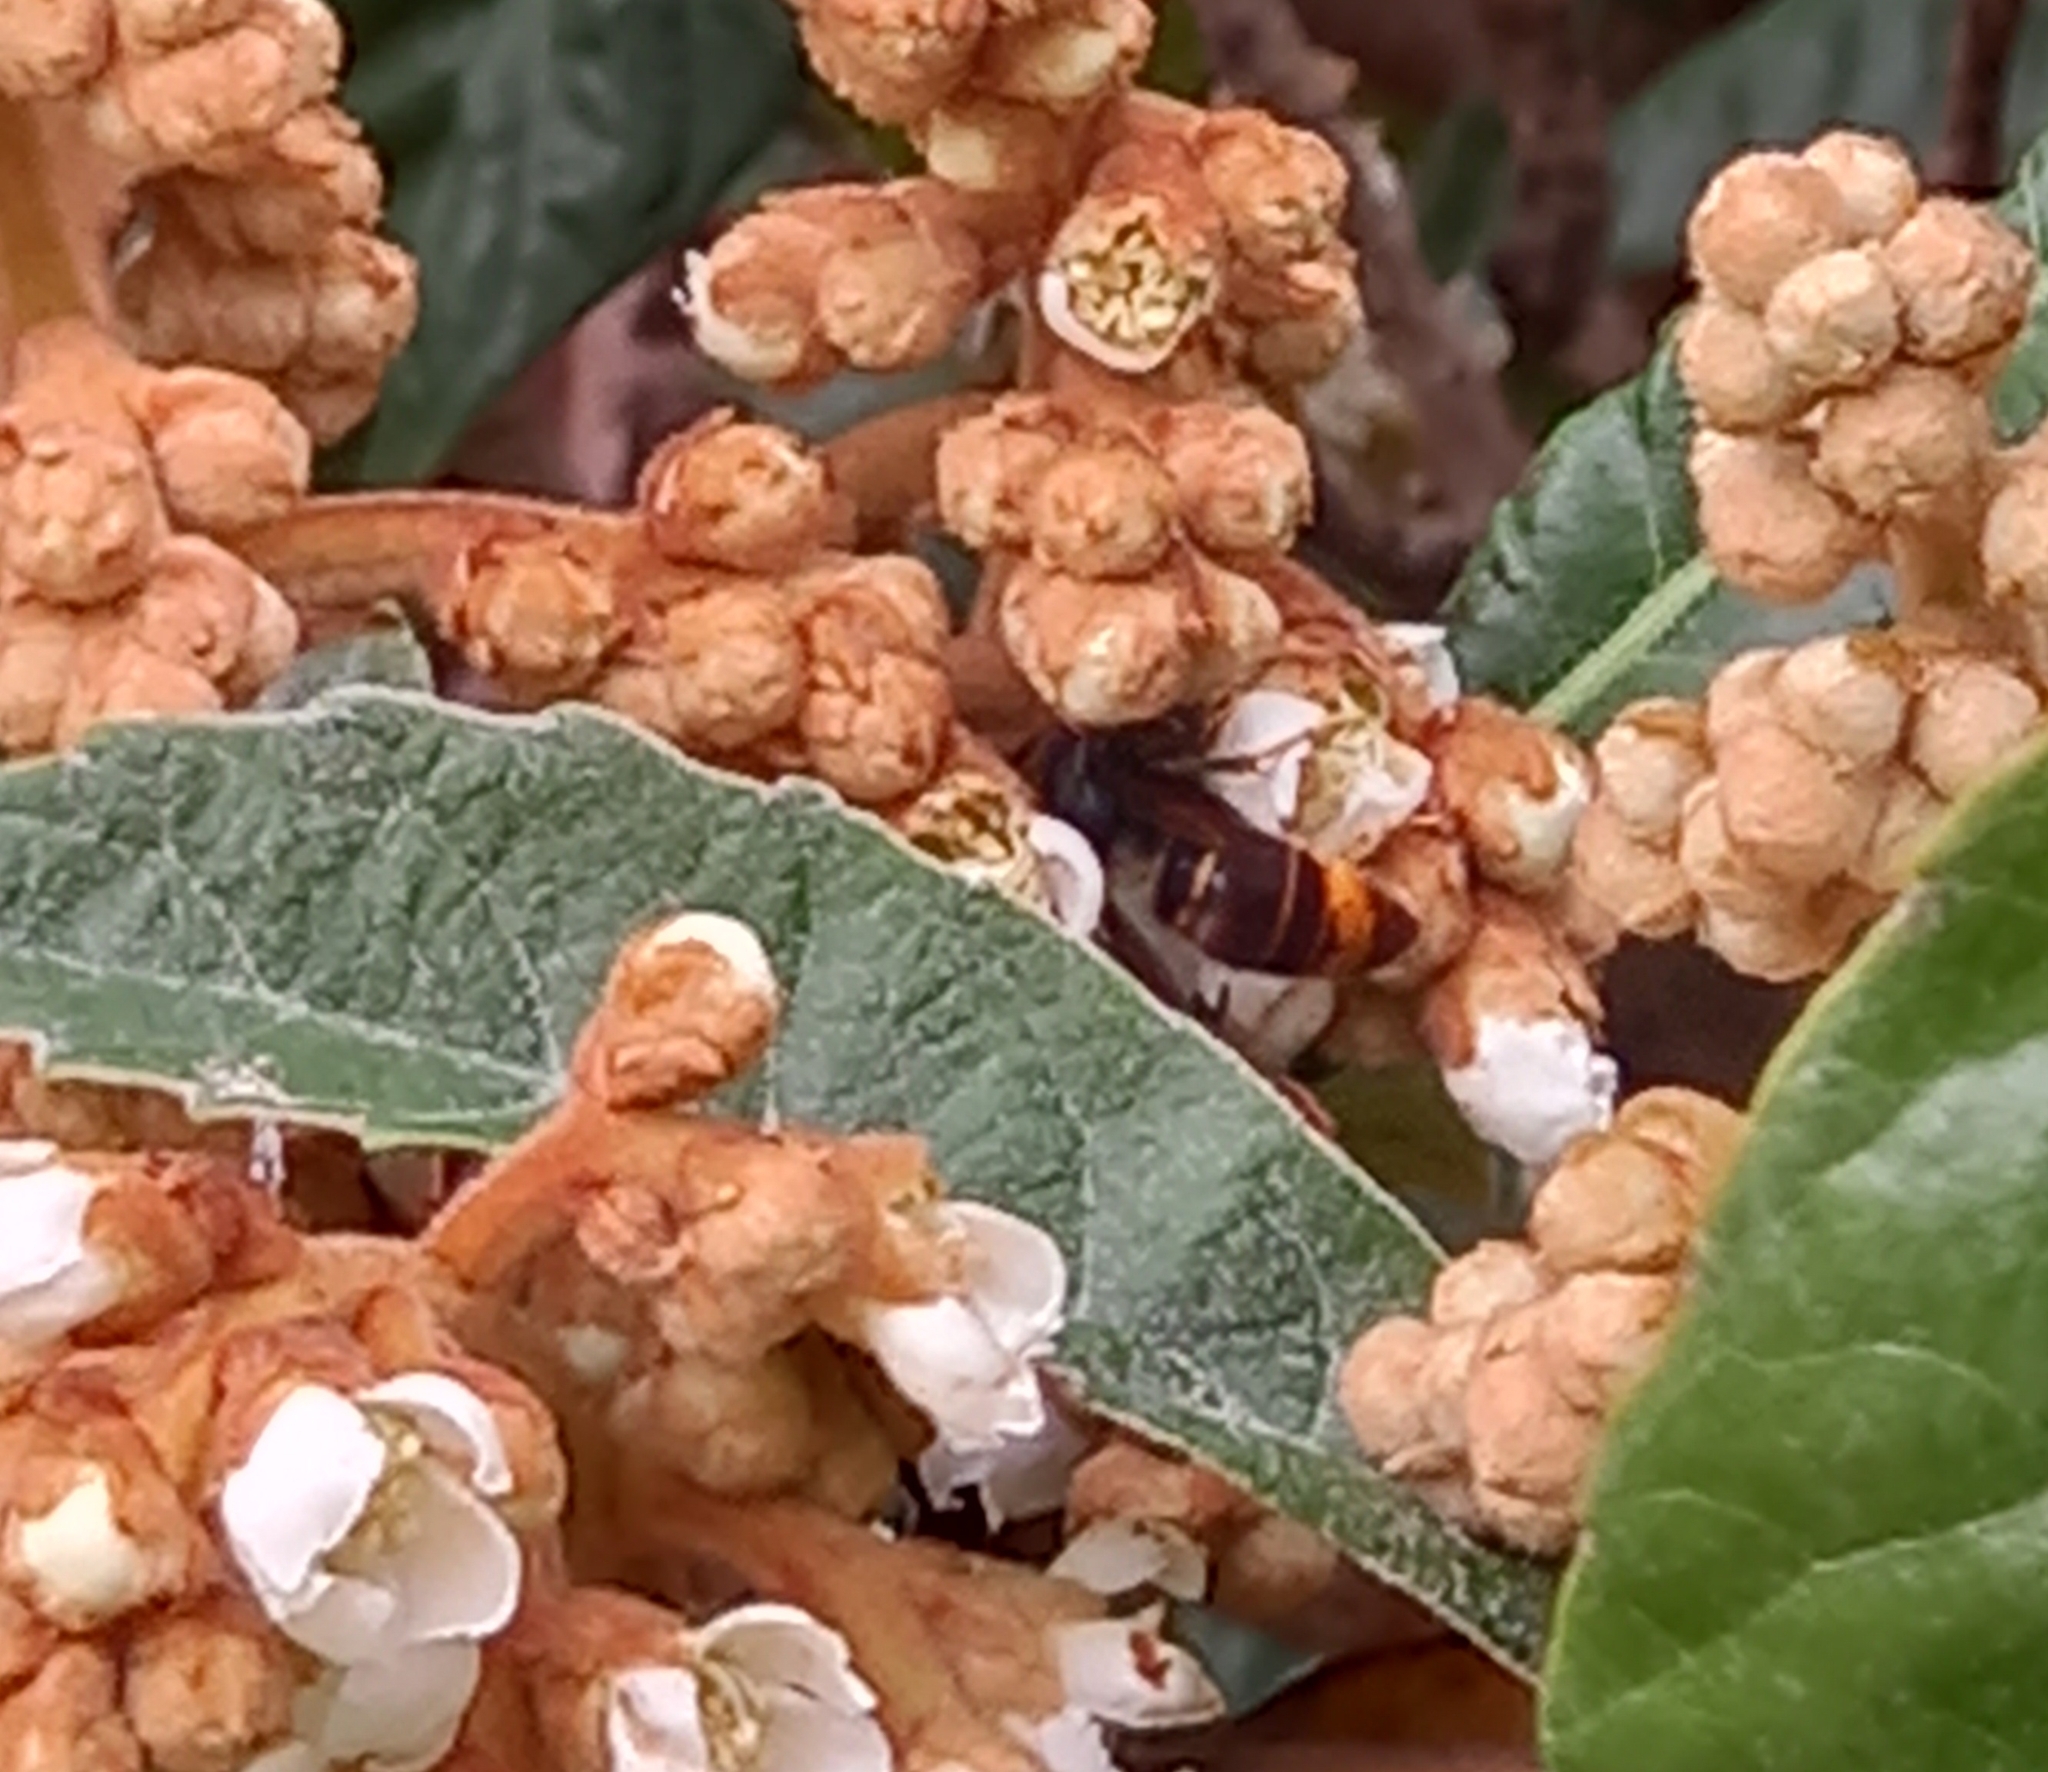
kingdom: Animalia
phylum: Arthropoda
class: Insecta
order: Hymenoptera
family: Vespidae
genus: Vespa
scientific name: Vespa velutina
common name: Asian hornet
